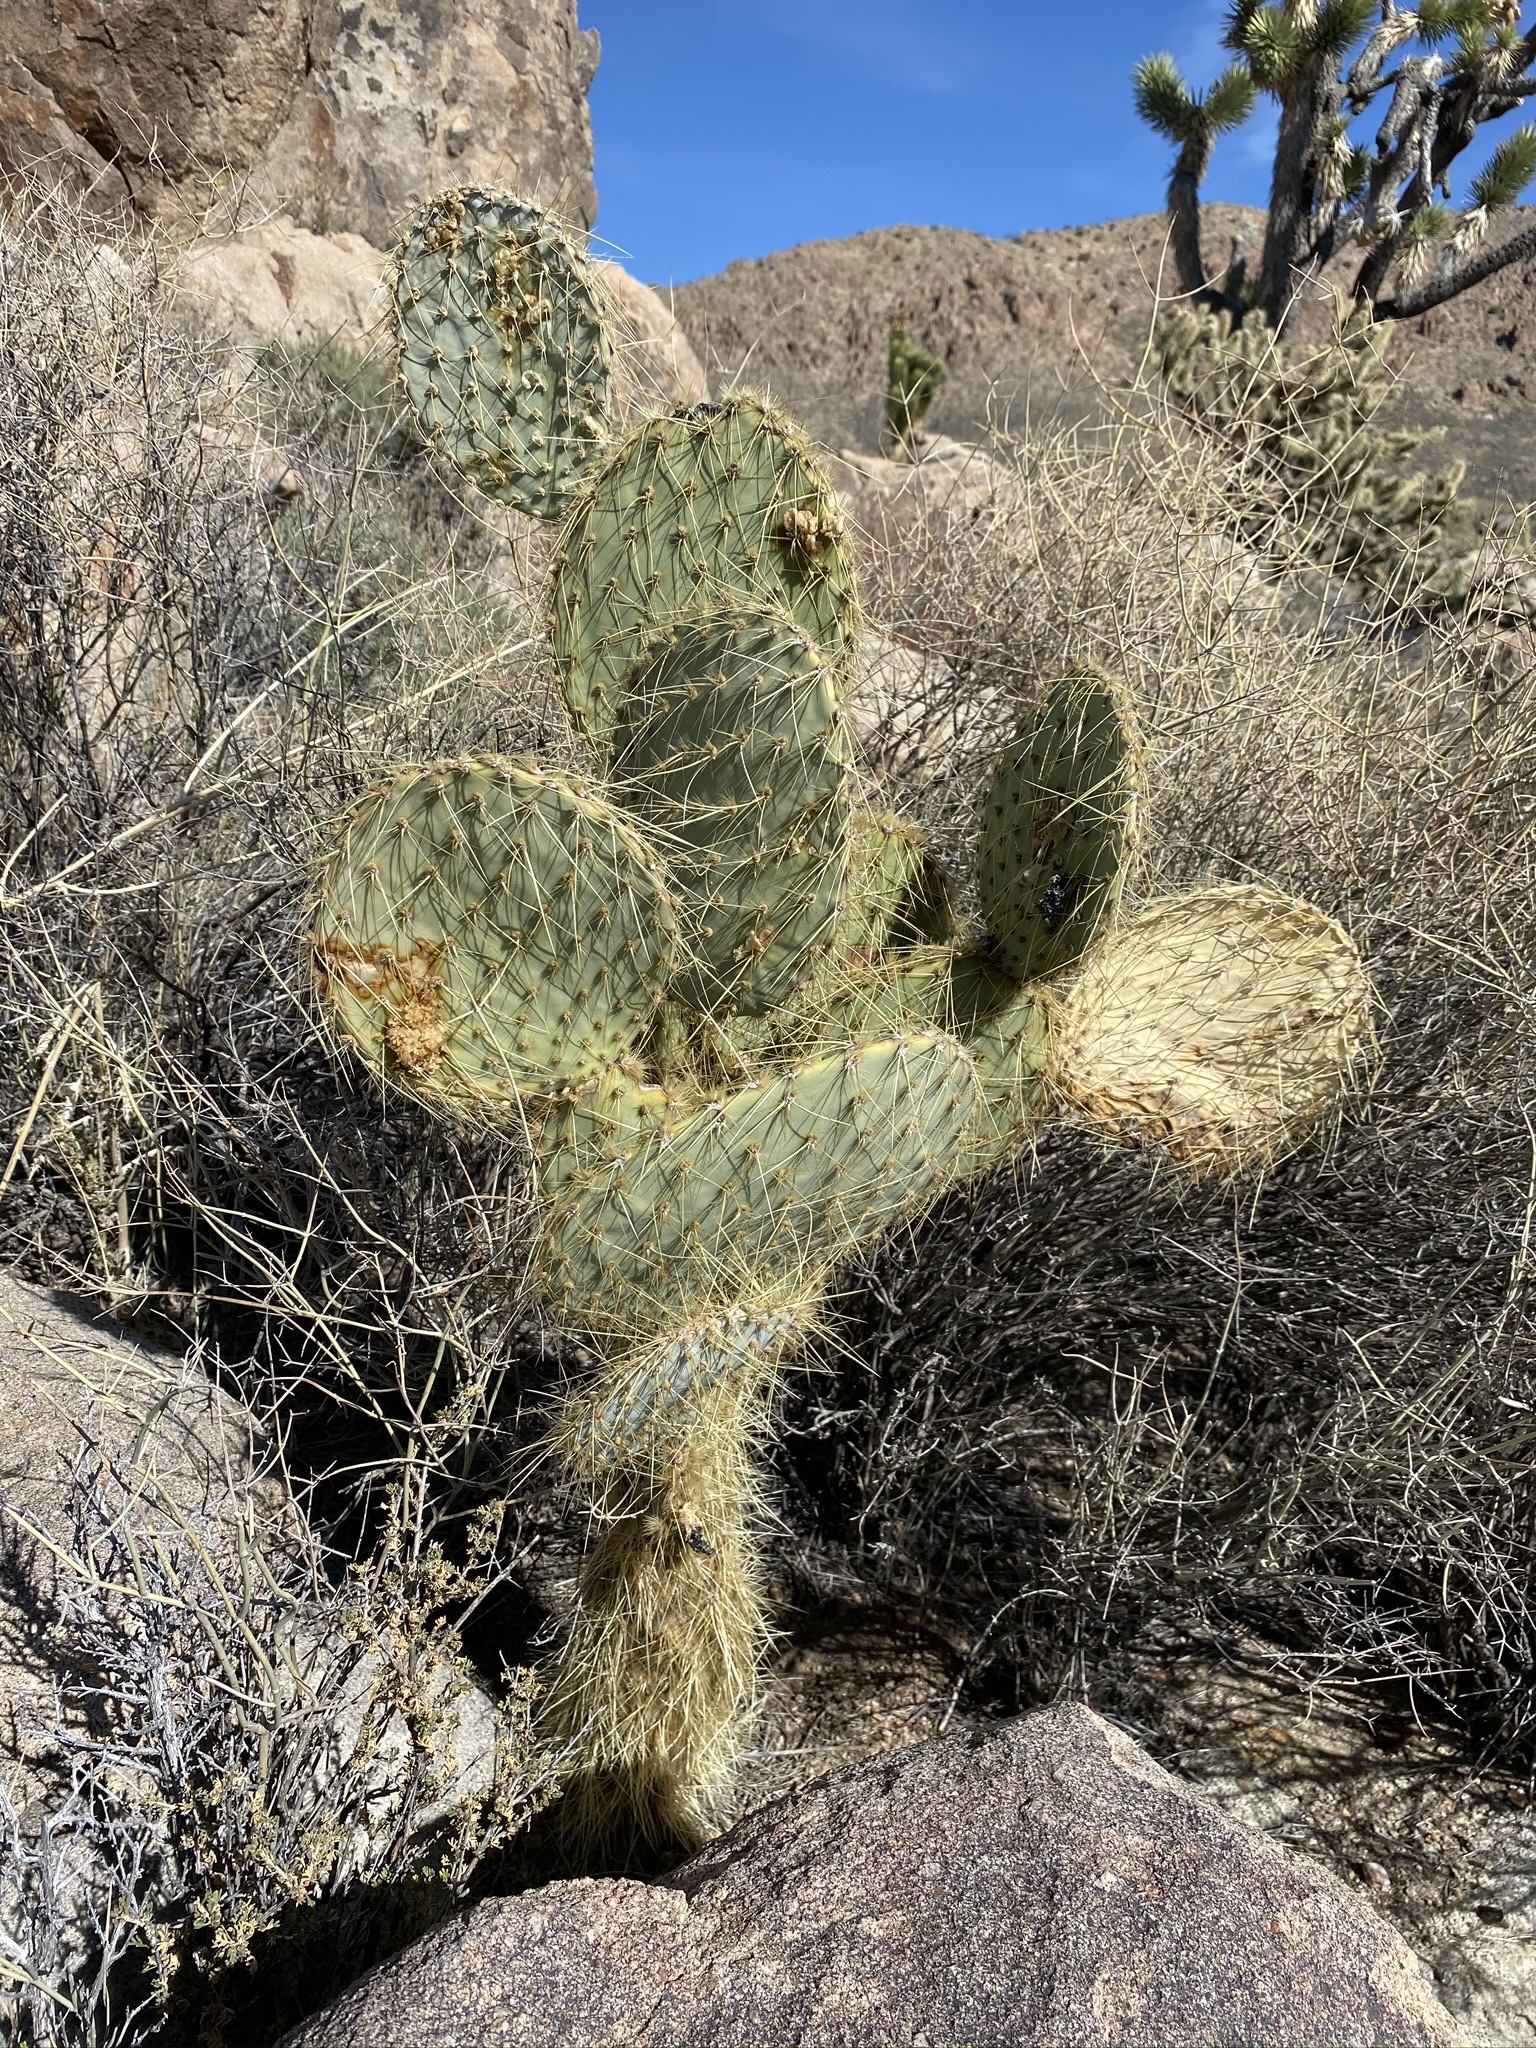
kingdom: Plantae
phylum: Tracheophyta
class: Magnoliopsida
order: Caryophyllales
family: Cactaceae
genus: Opuntia
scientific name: Opuntia chlorotica
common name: Dollar-joint prickly-pear
